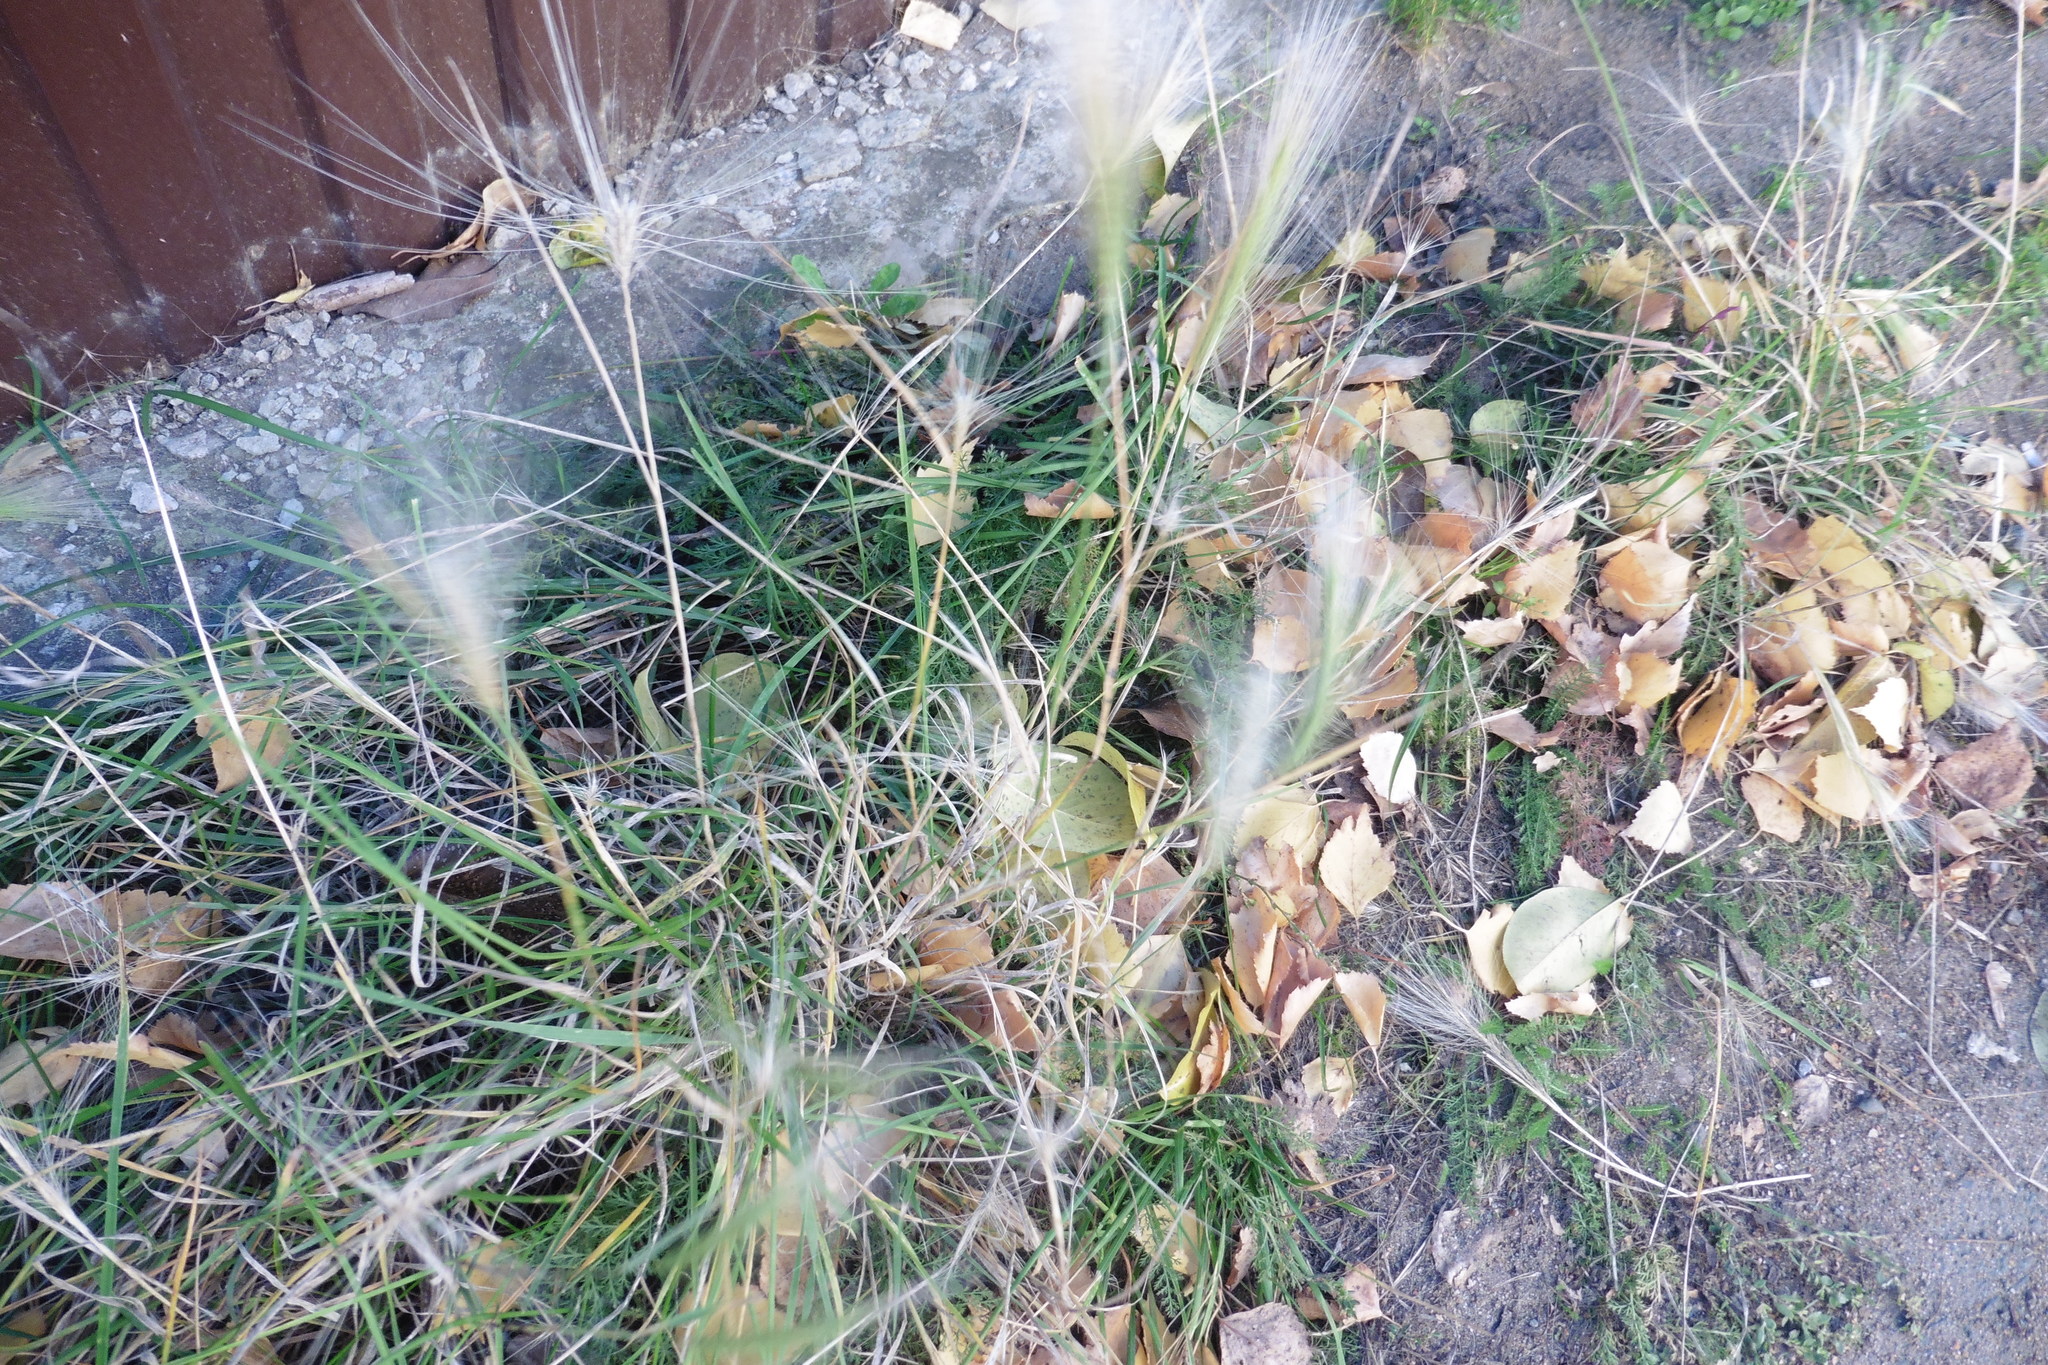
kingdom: Plantae
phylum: Tracheophyta
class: Liliopsida
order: Poales
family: Poaceae
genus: Hordeum
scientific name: Hordeum jubatum
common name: Foxtail barley
